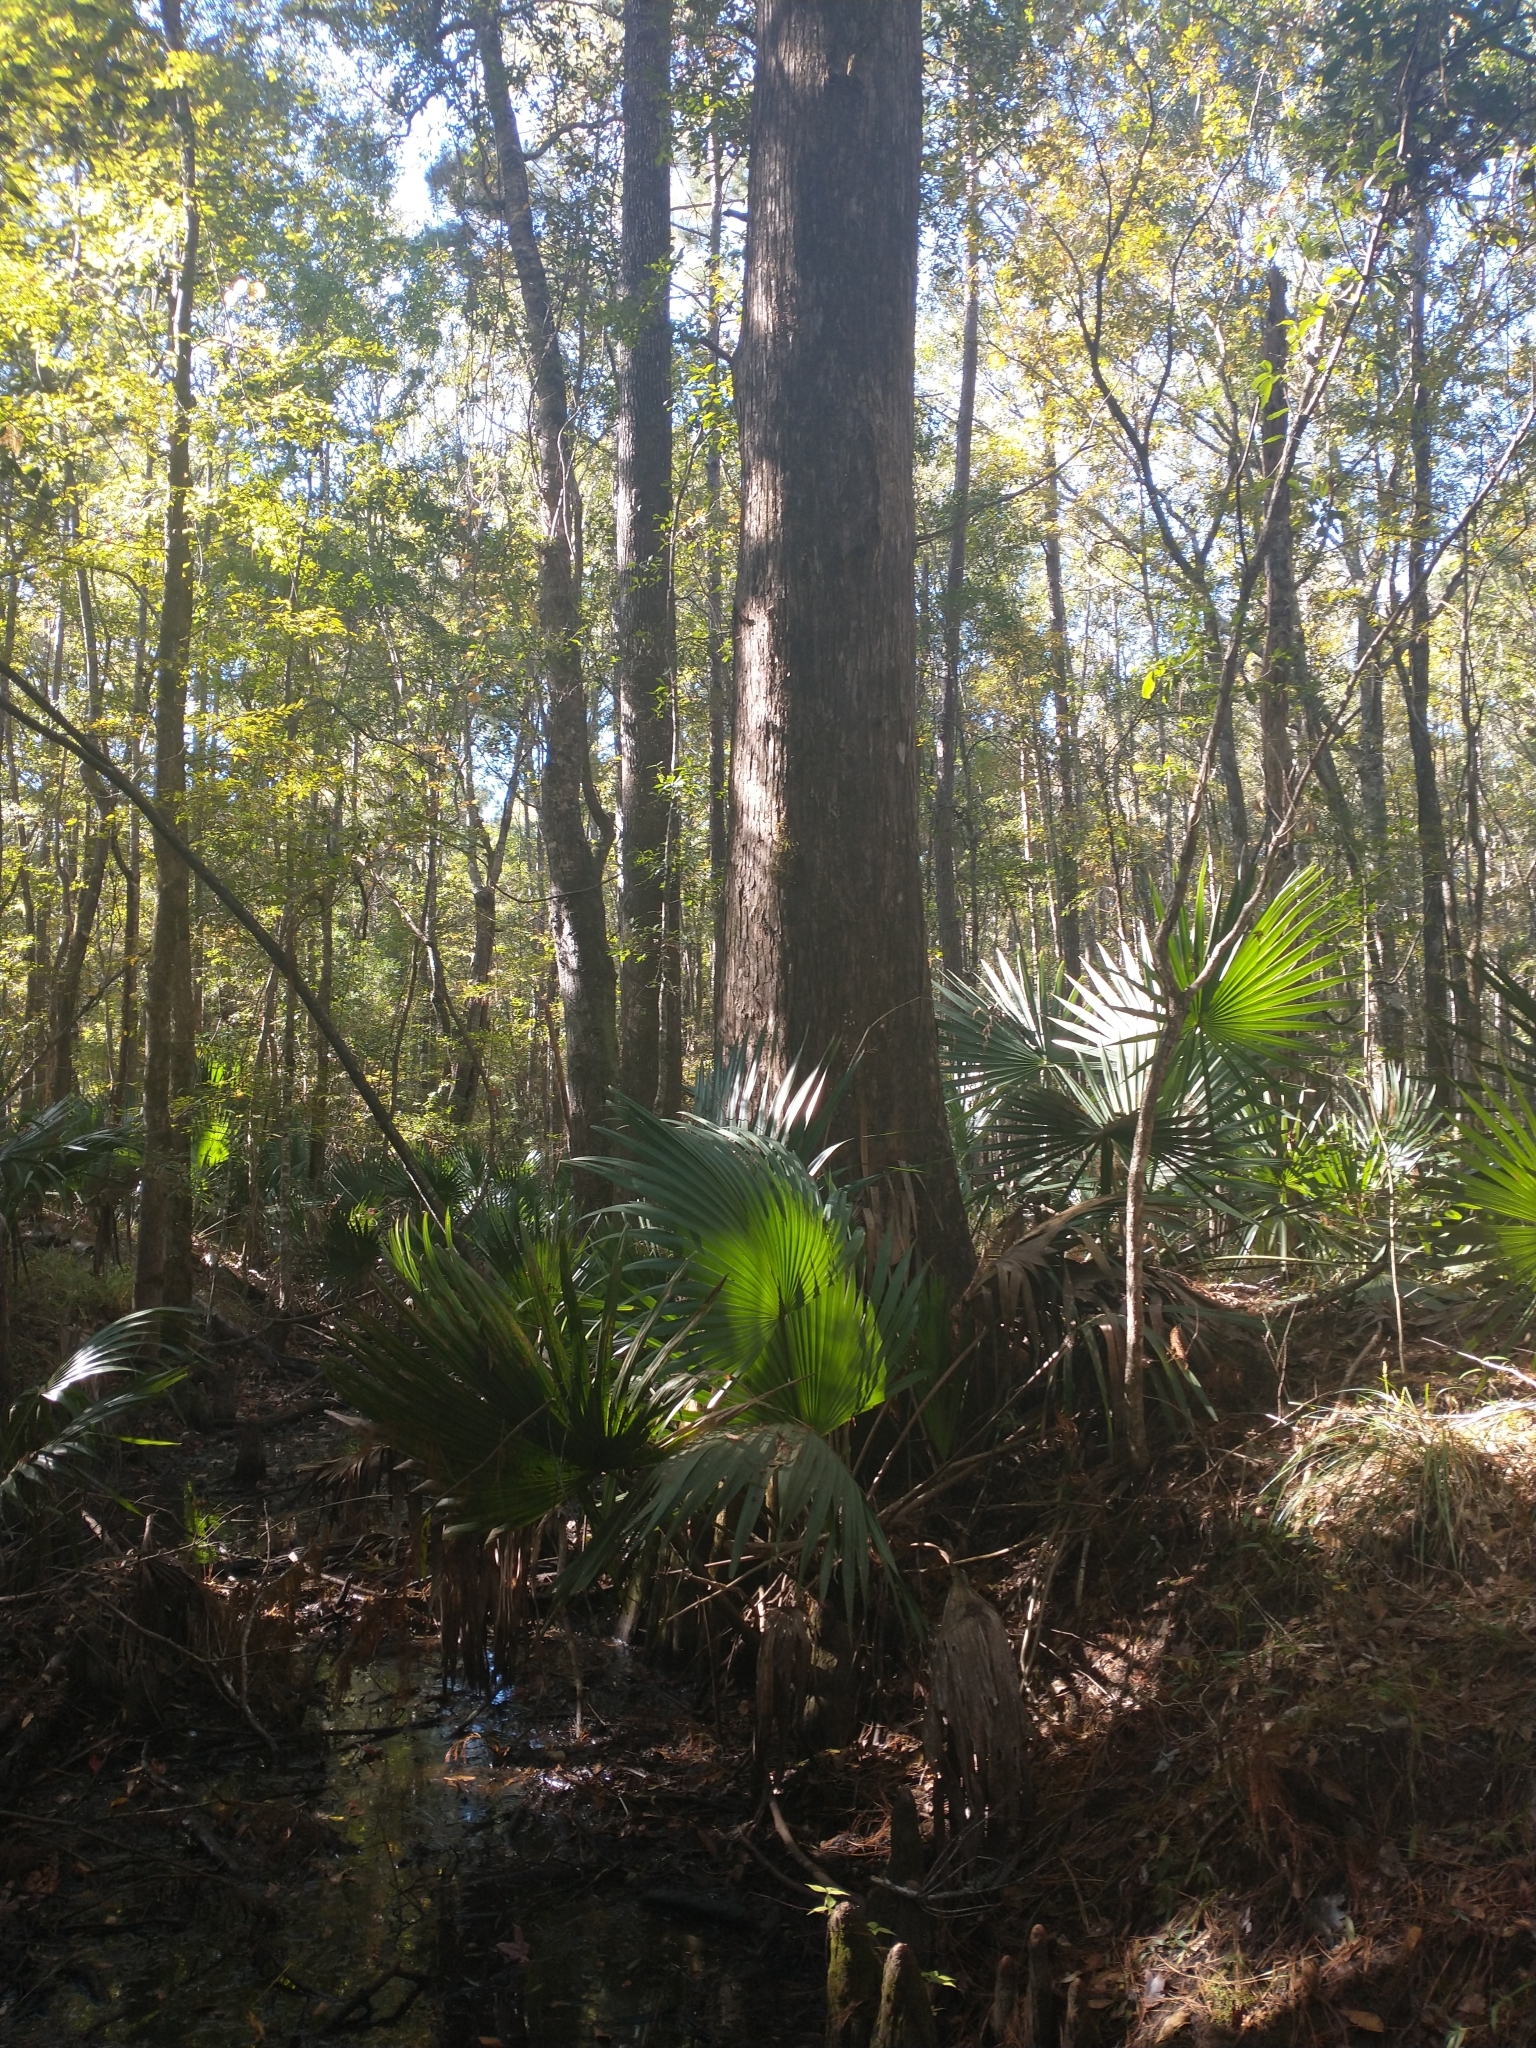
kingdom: Plantae
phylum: Tracheophyta
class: Pinopsida
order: Pinales
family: Cupressaceae
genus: Taxodium
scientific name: Taxodium distichum
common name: Bald cypress
